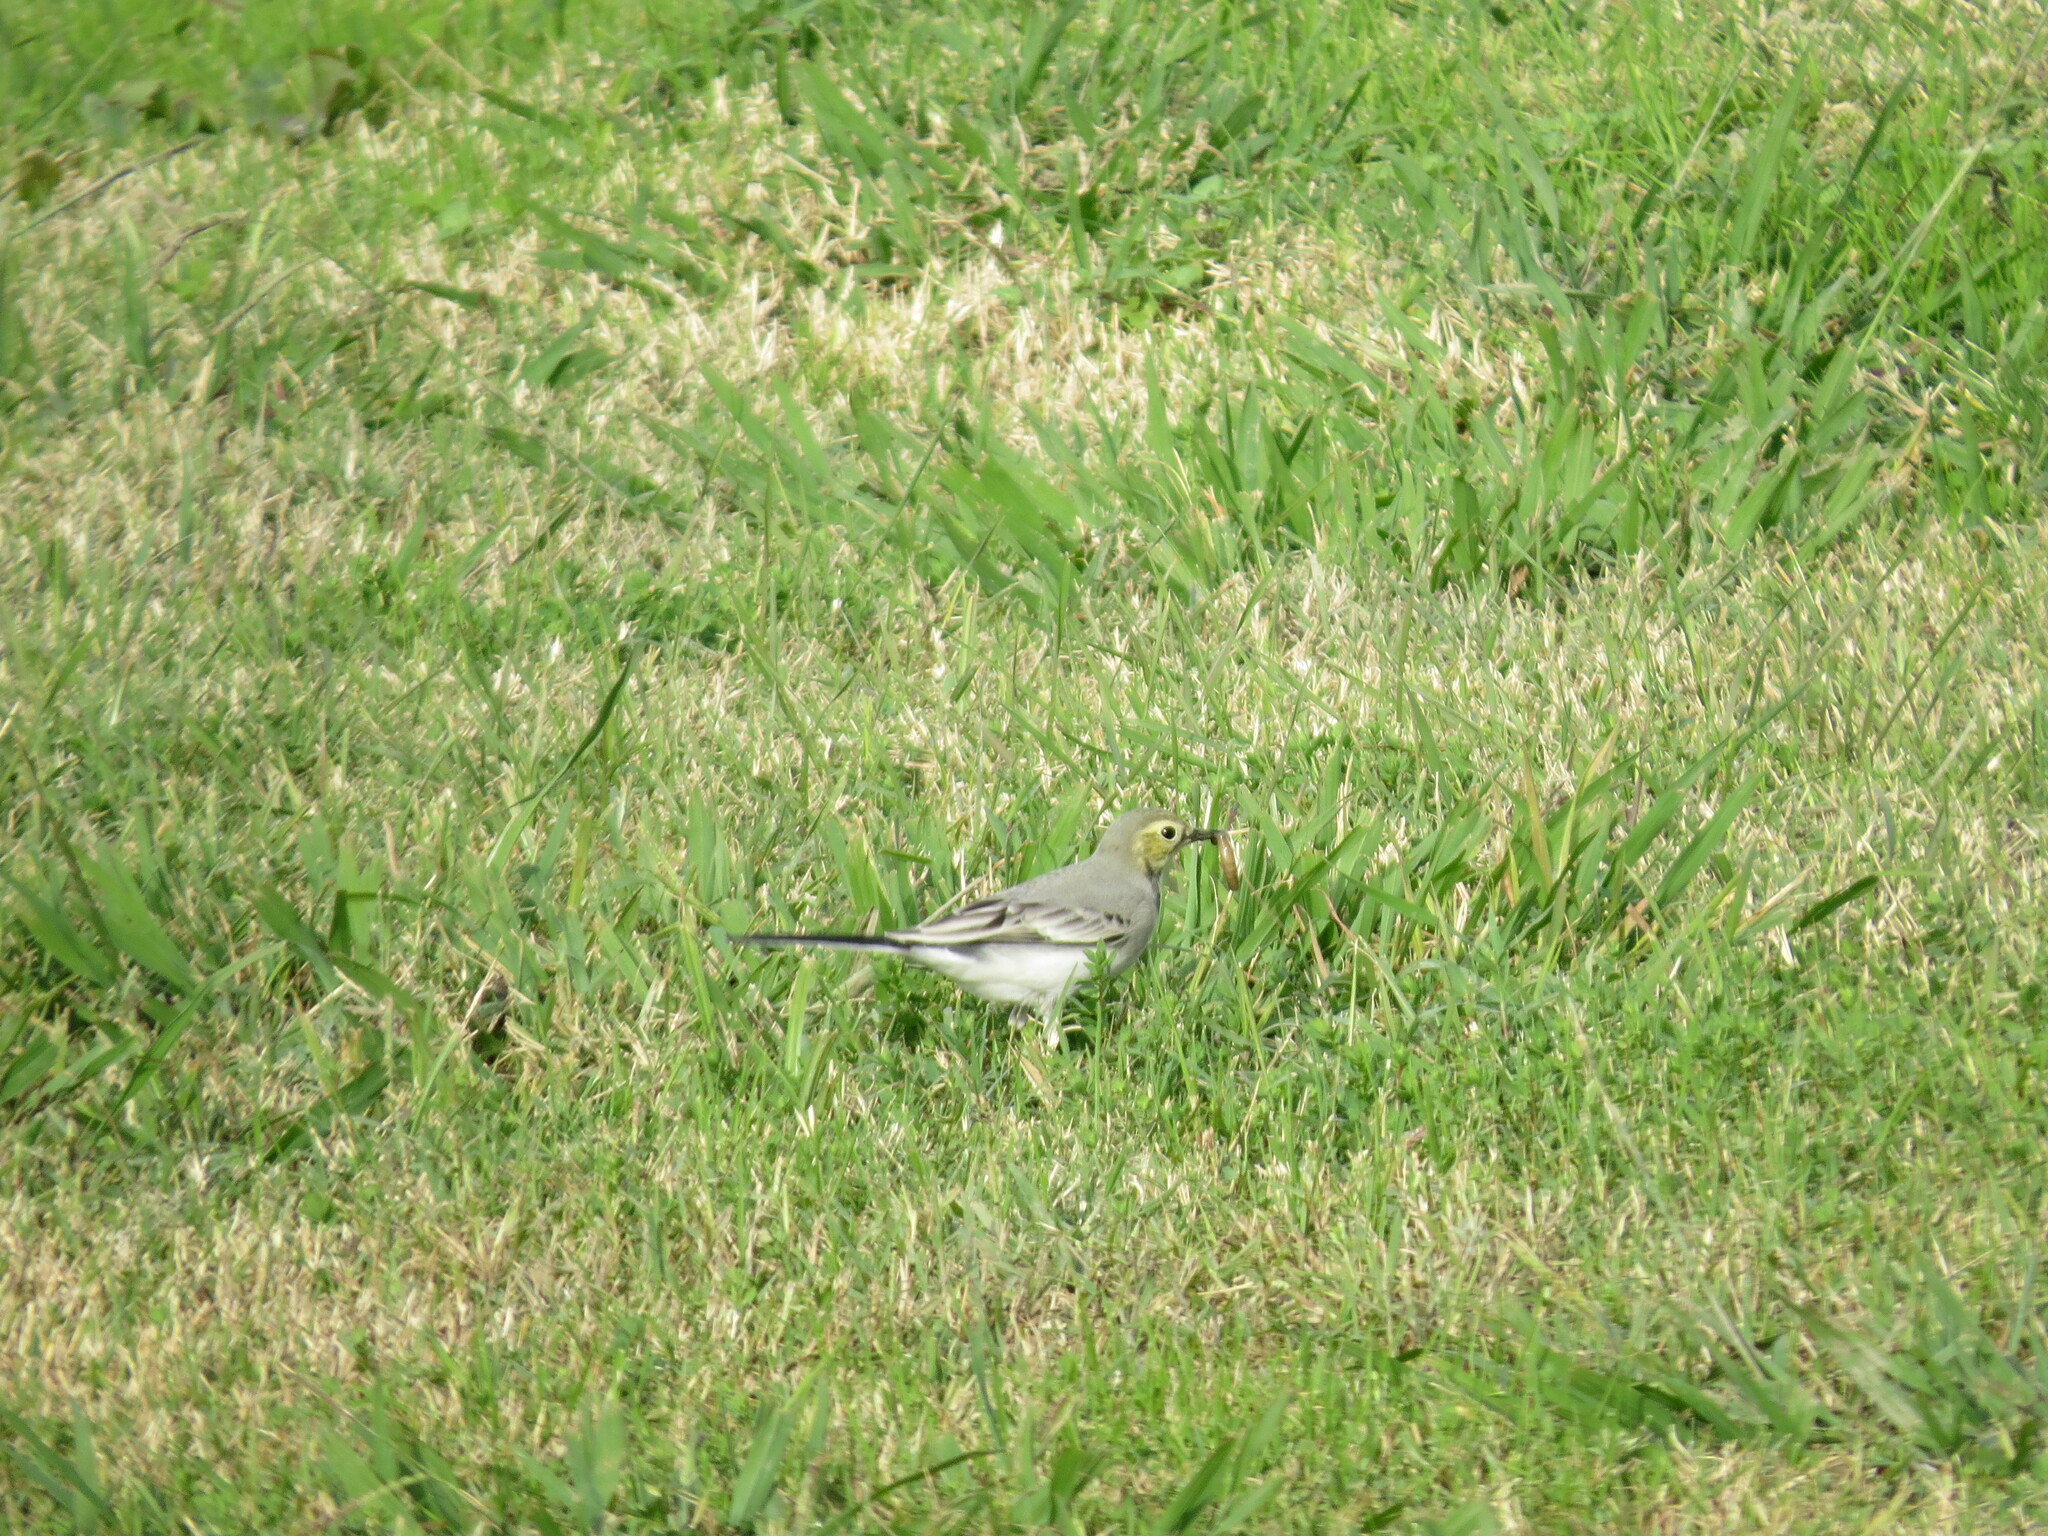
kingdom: Animalia
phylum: Chordata
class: Aves
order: Passeriformes
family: Motacillidae
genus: Motacilla
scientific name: Motacilla alba
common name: White wagtail
